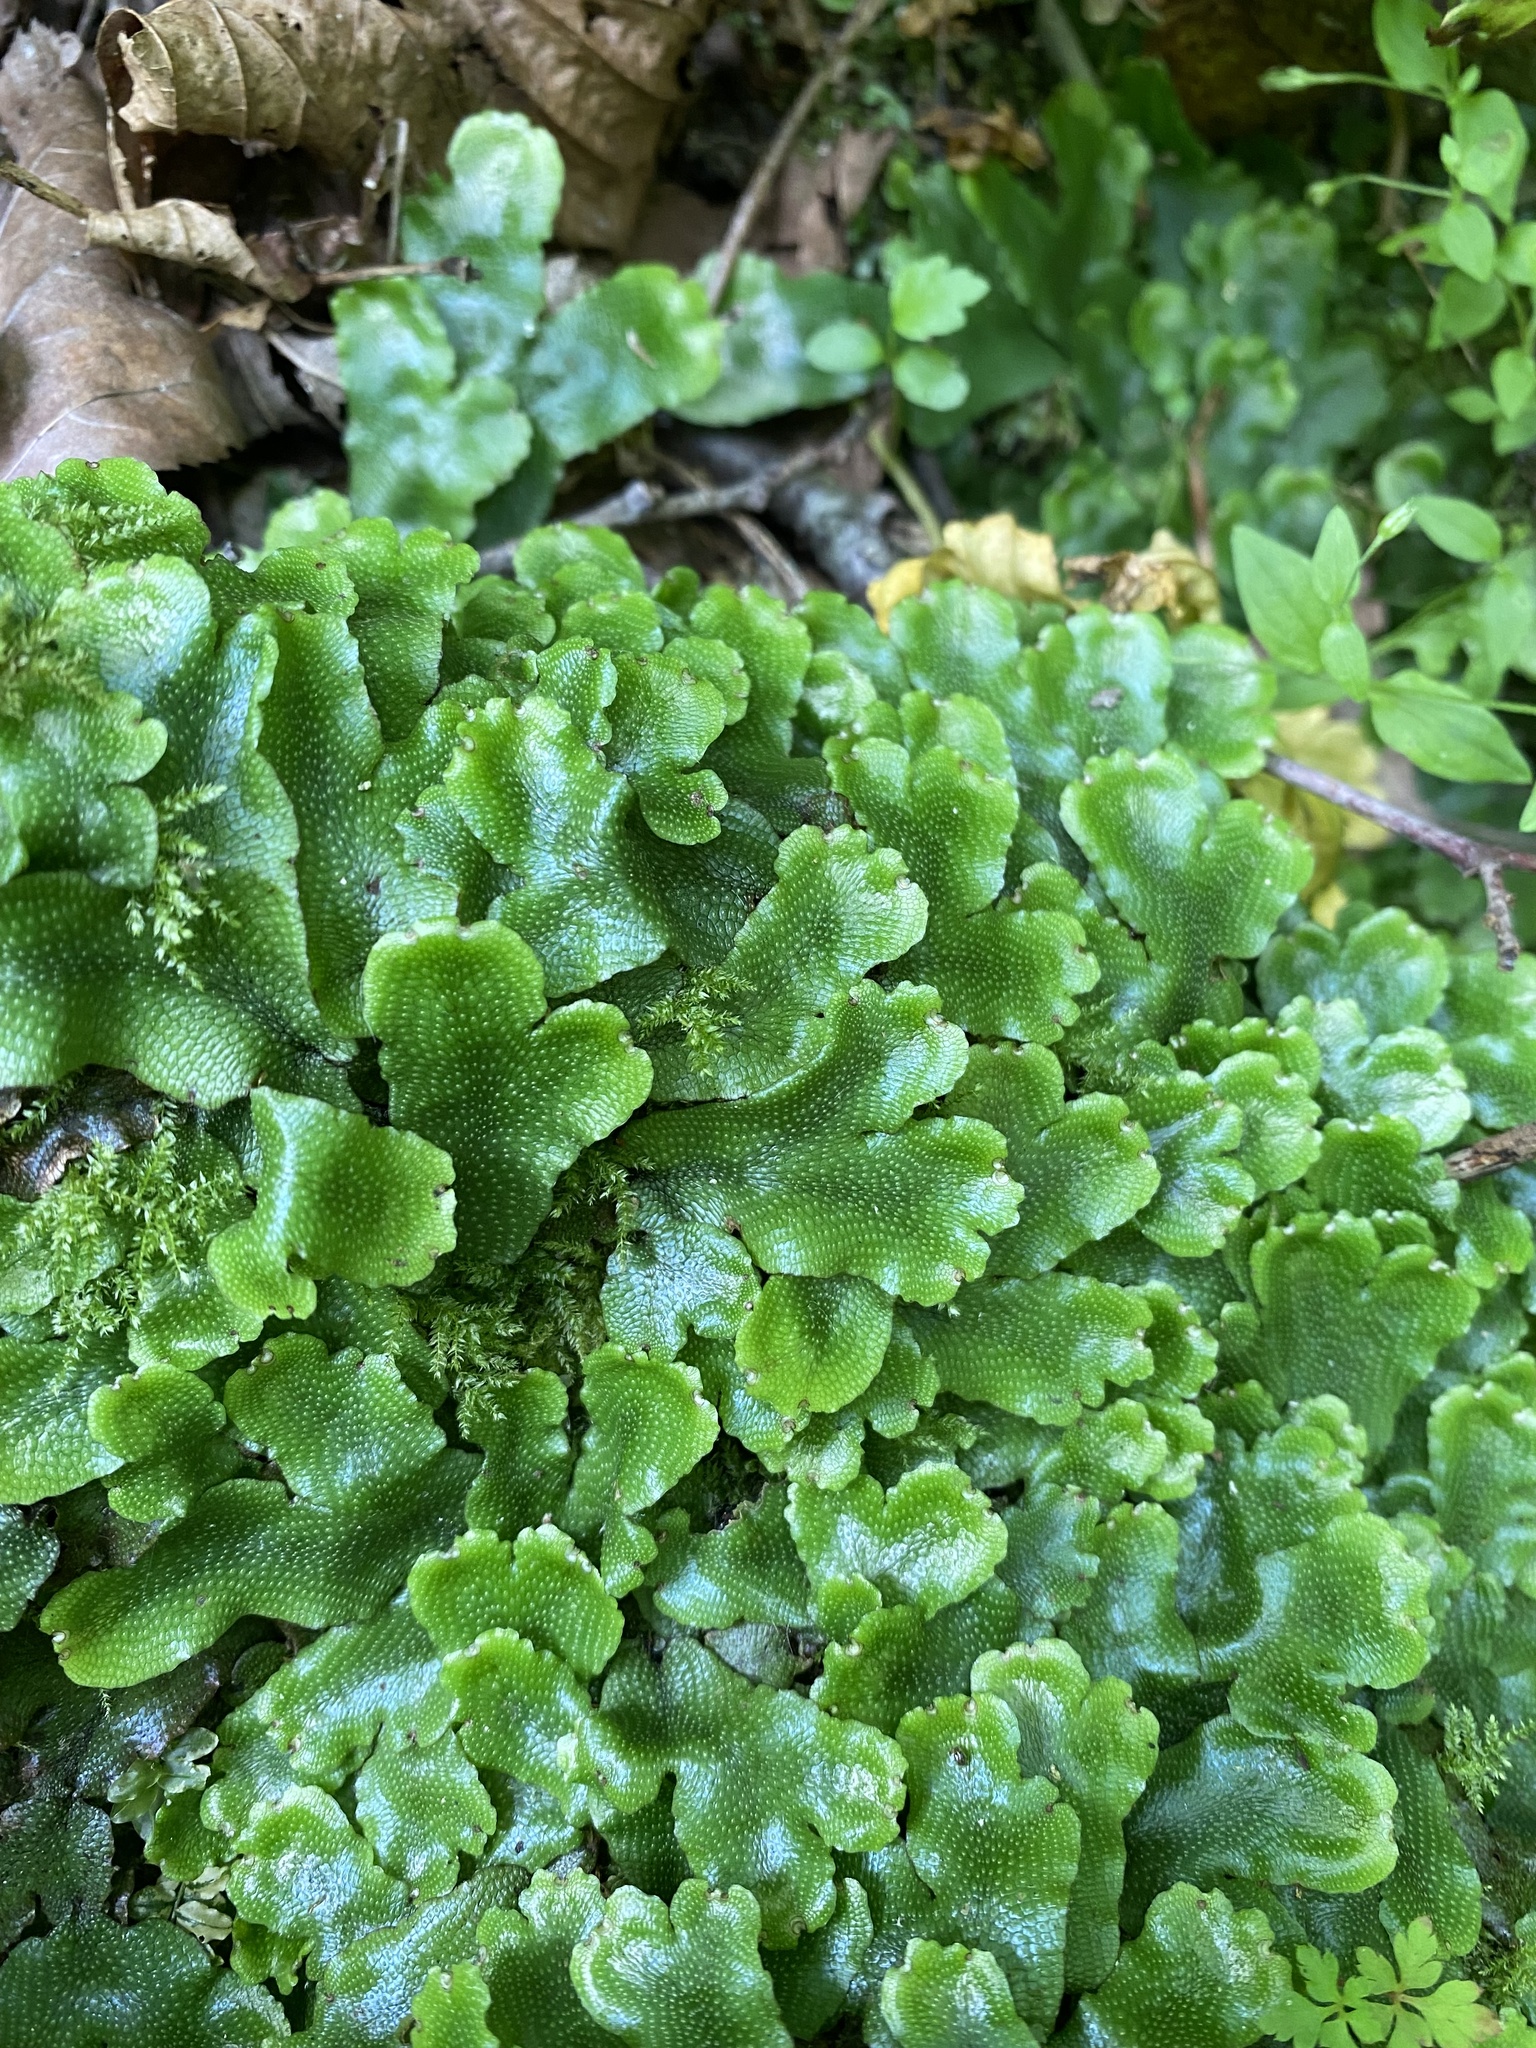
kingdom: Plantae
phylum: Marchantiophyta
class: Marchantiopsida
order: Marchantiales
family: Conocephalaceae
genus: Conocephalum
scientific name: Conocephalum conicum
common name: Great scented liverwort
